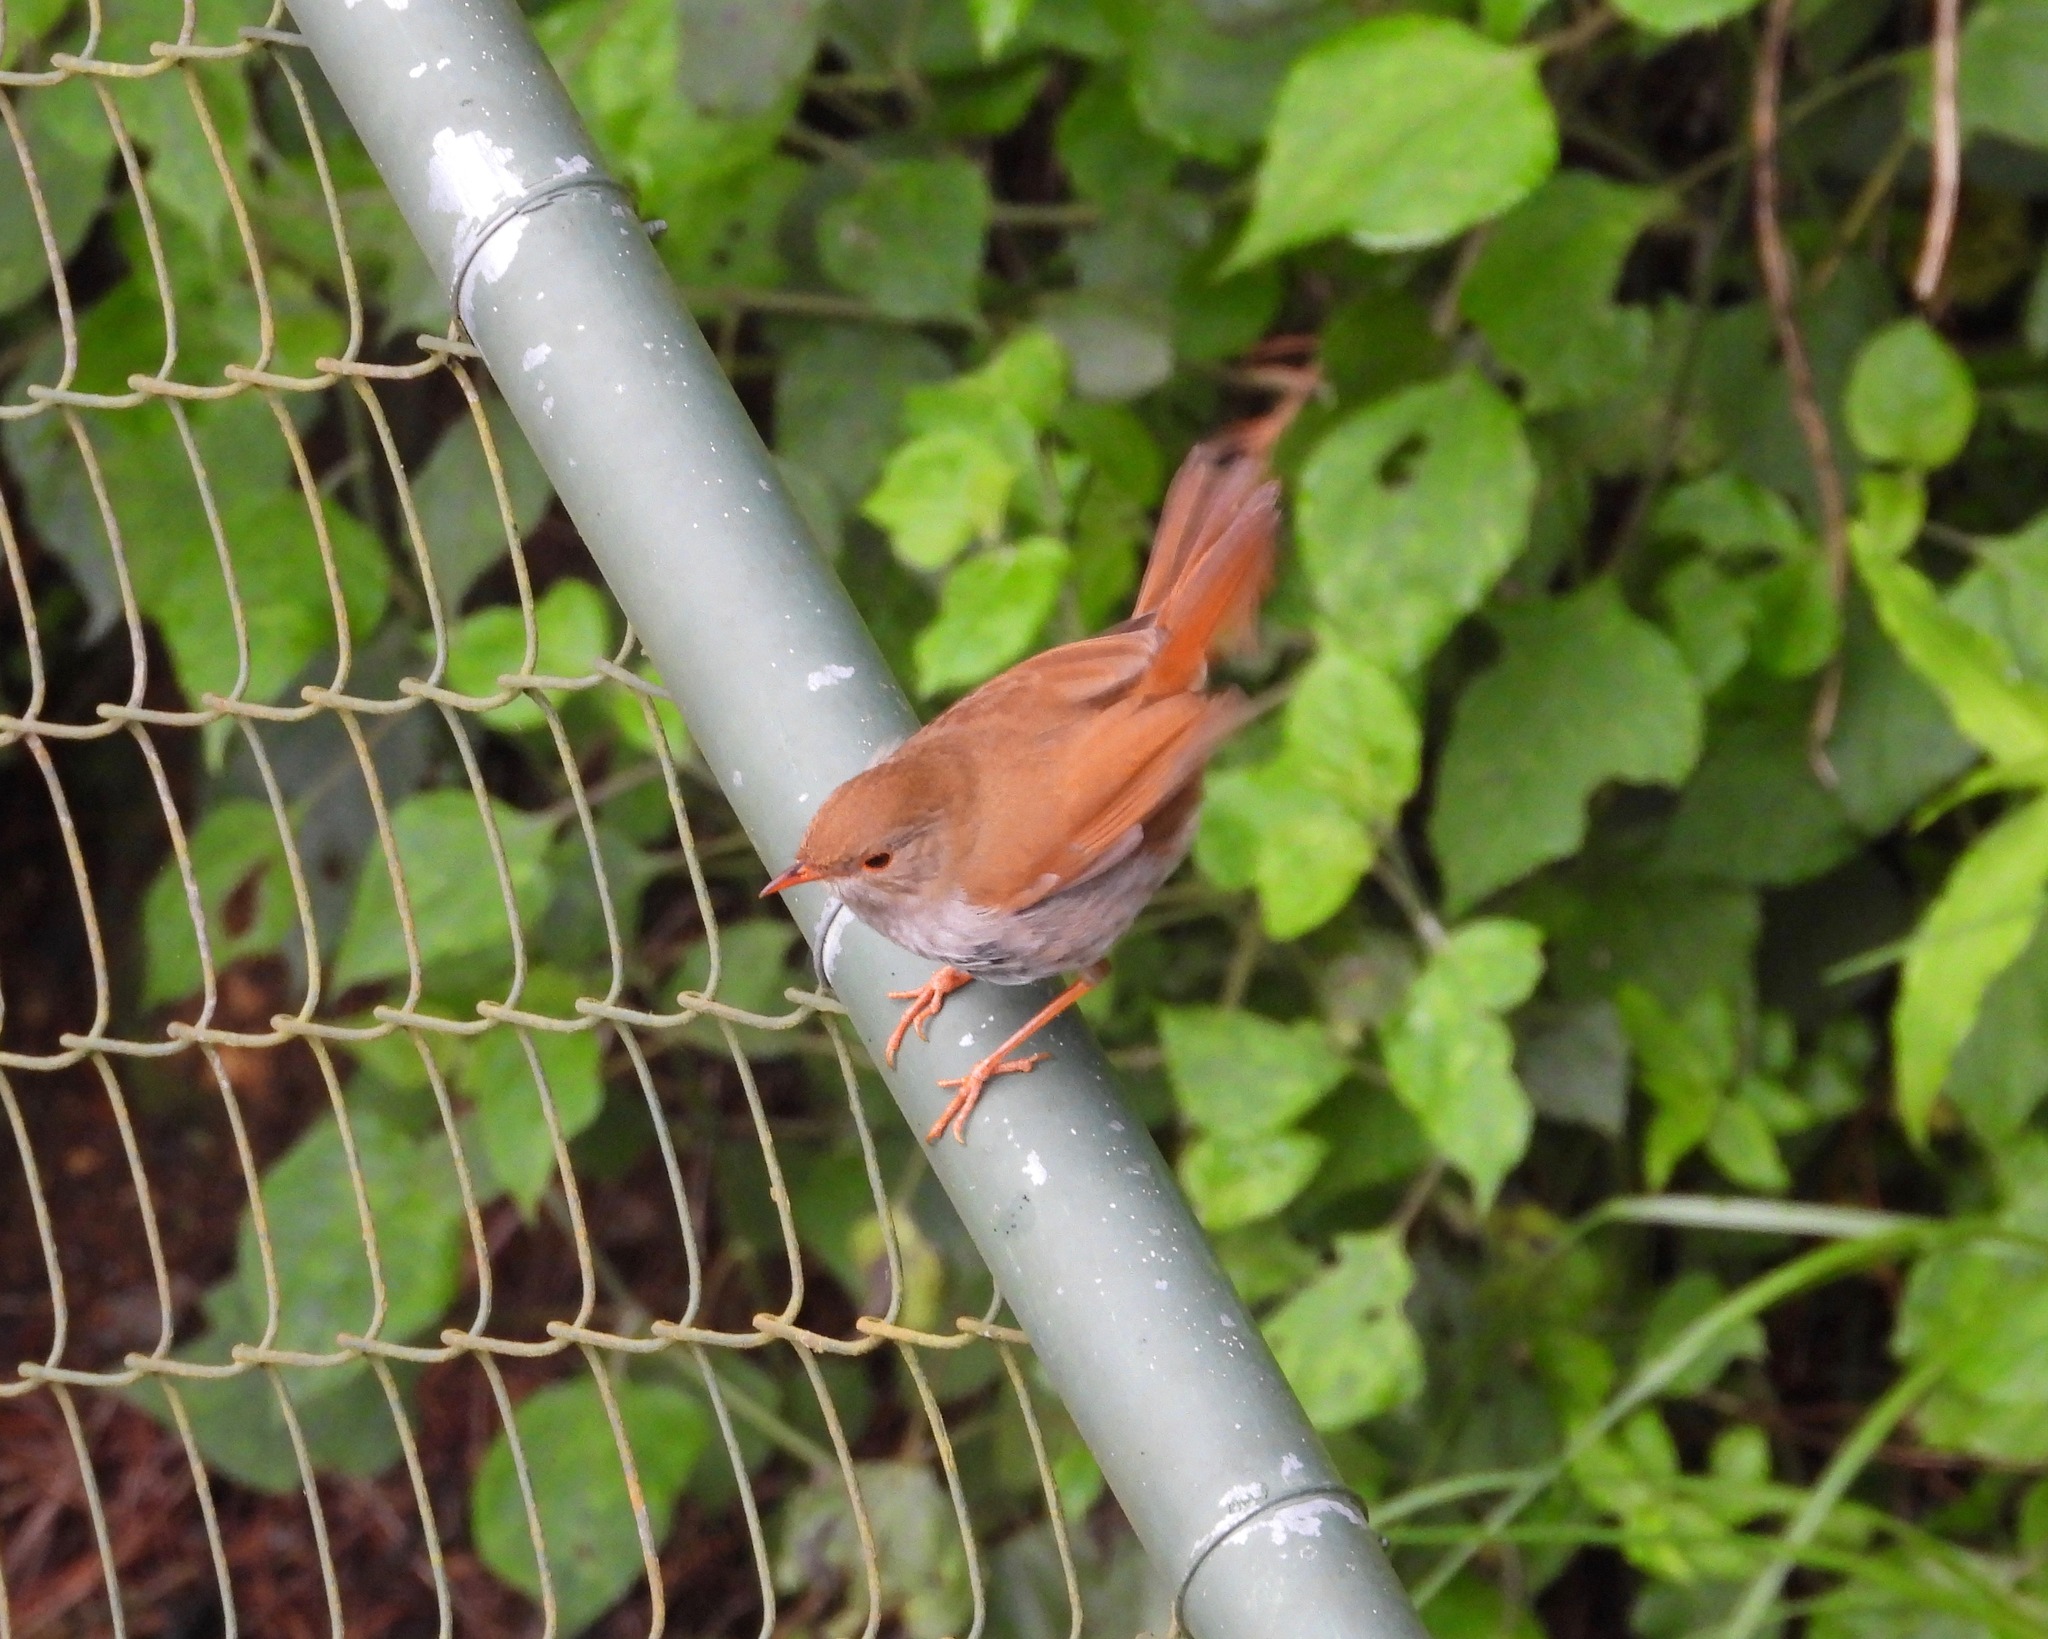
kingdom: Animalia
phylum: Chordata
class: Aves
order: Passeriformes
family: Turdidae
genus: Catharus
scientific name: Catharus aurantiirostris
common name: Orange-billed nightingale-thrush
